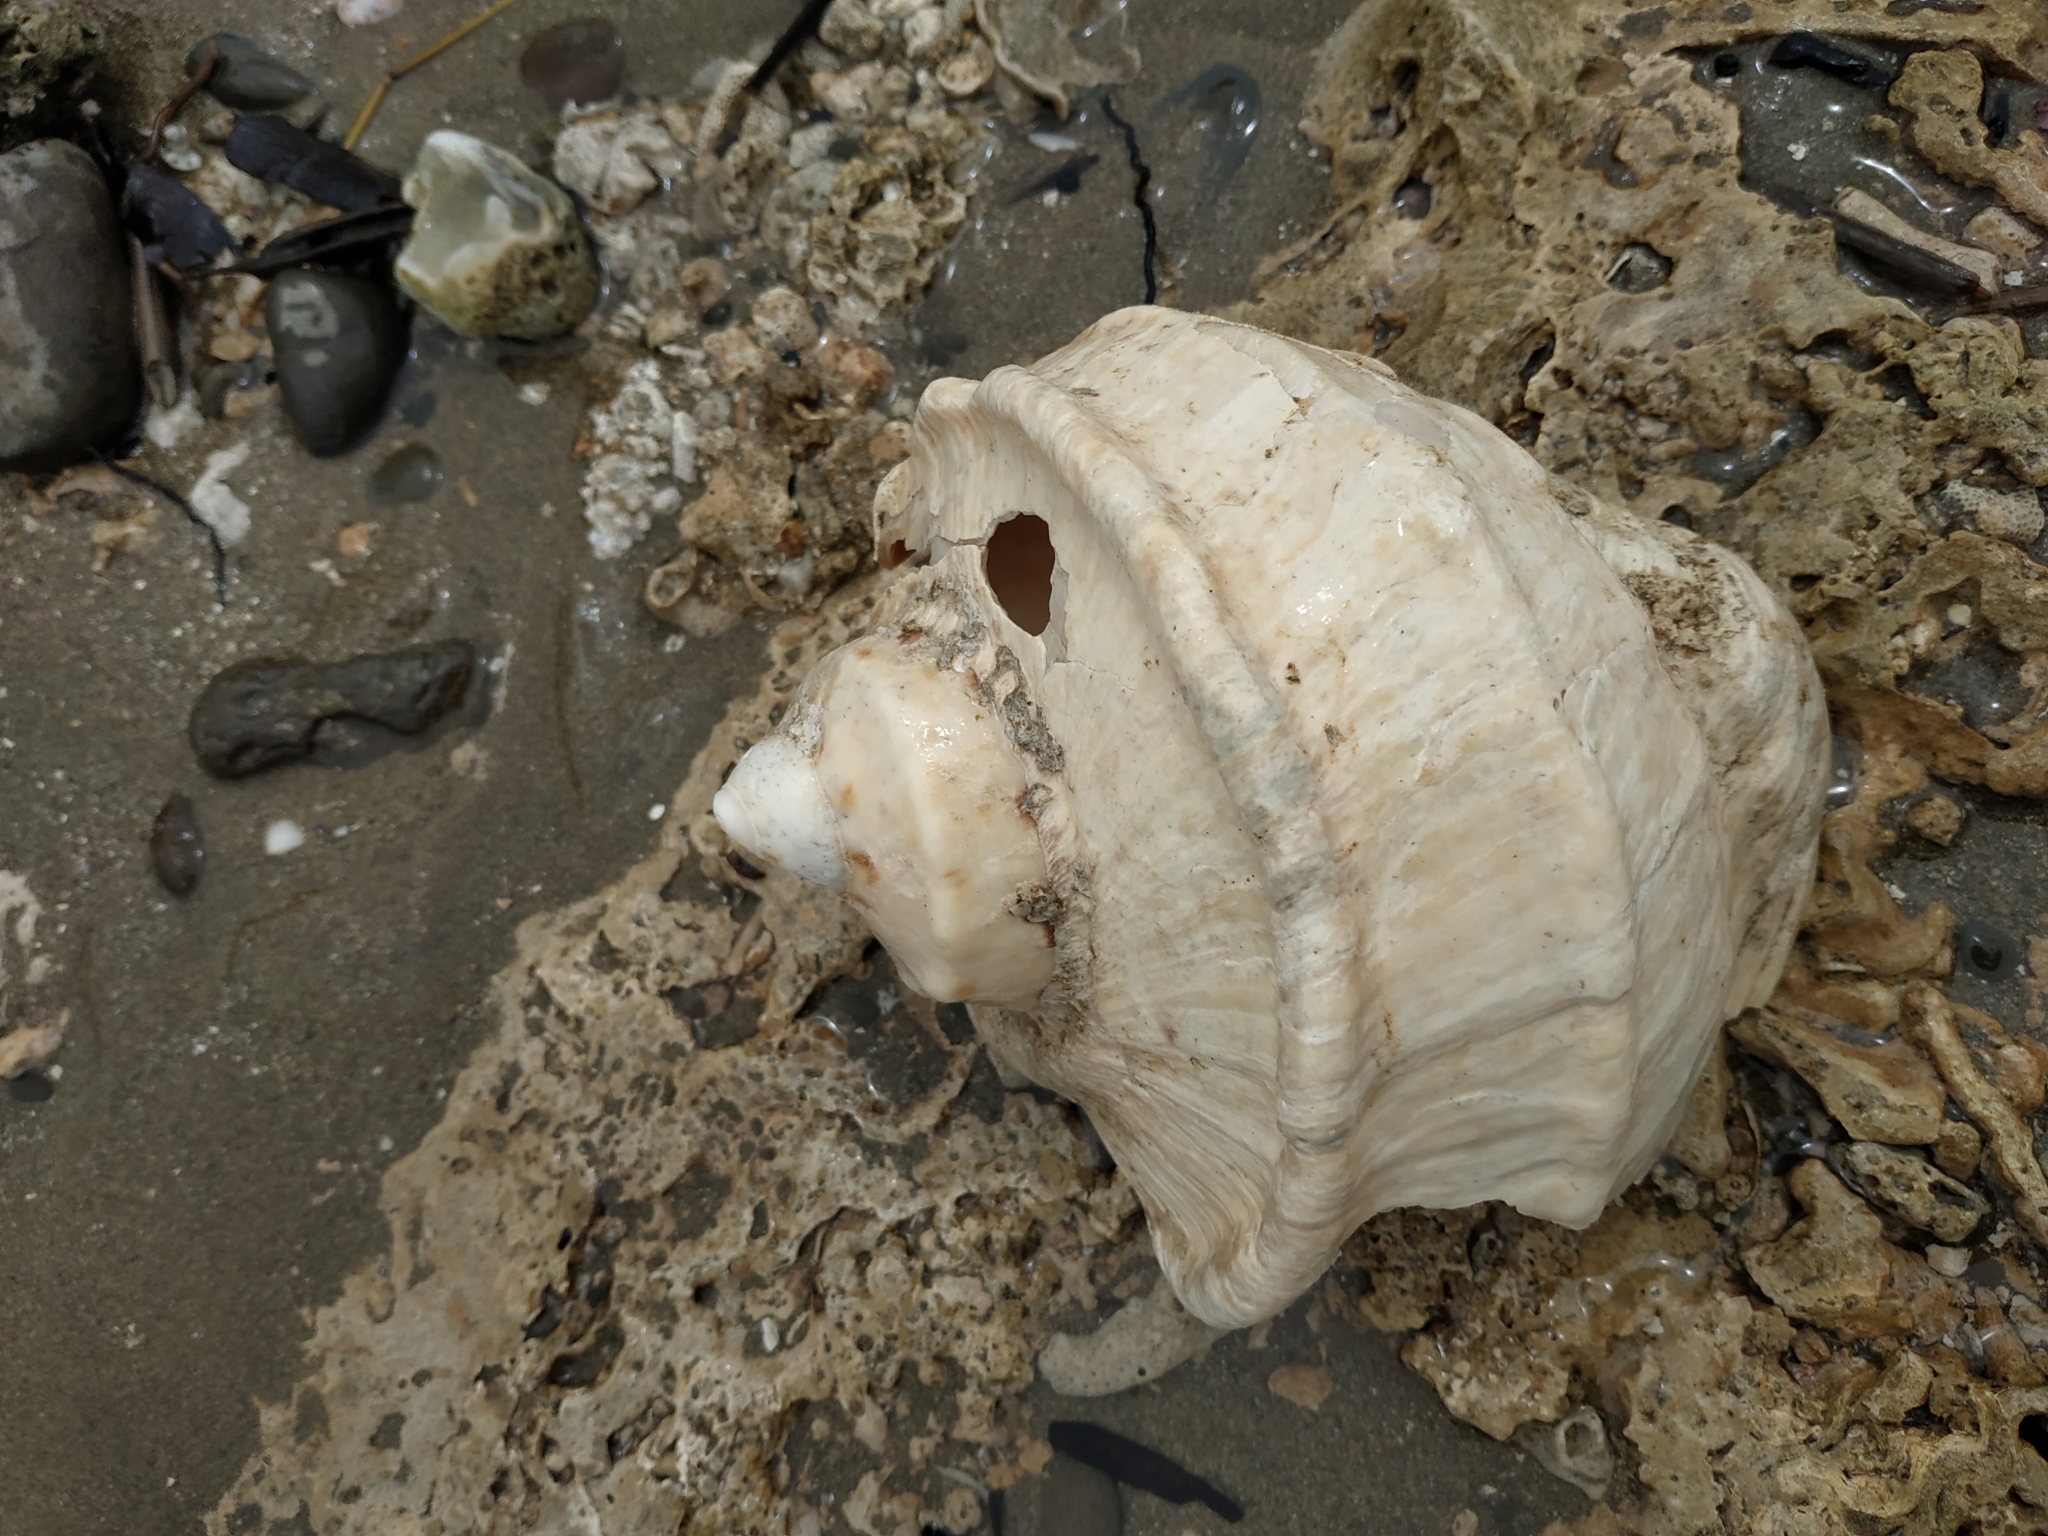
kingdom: Animalia
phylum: Mollusca
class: Gastropoda
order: Trochida
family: Turbinidae
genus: Turbo
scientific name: Turbo marmoratus
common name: Giant green turban
